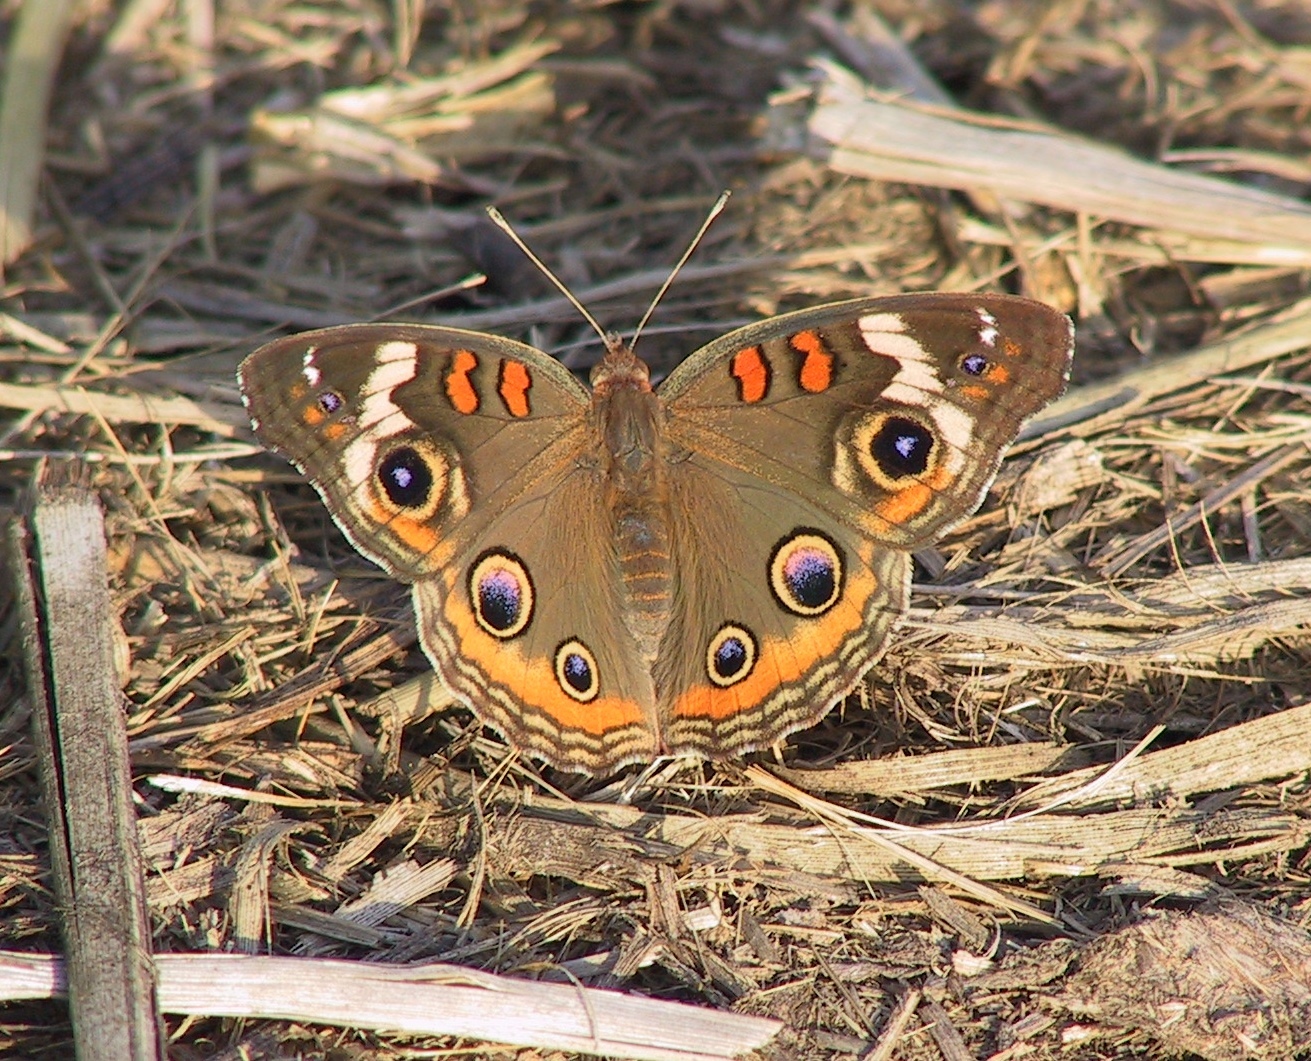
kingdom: Animalia
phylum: Arthropoda
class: Insecta
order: Lepidoptera
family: Nymphalidae
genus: Junonia
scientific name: Junonia coenia
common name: Common buckeye
